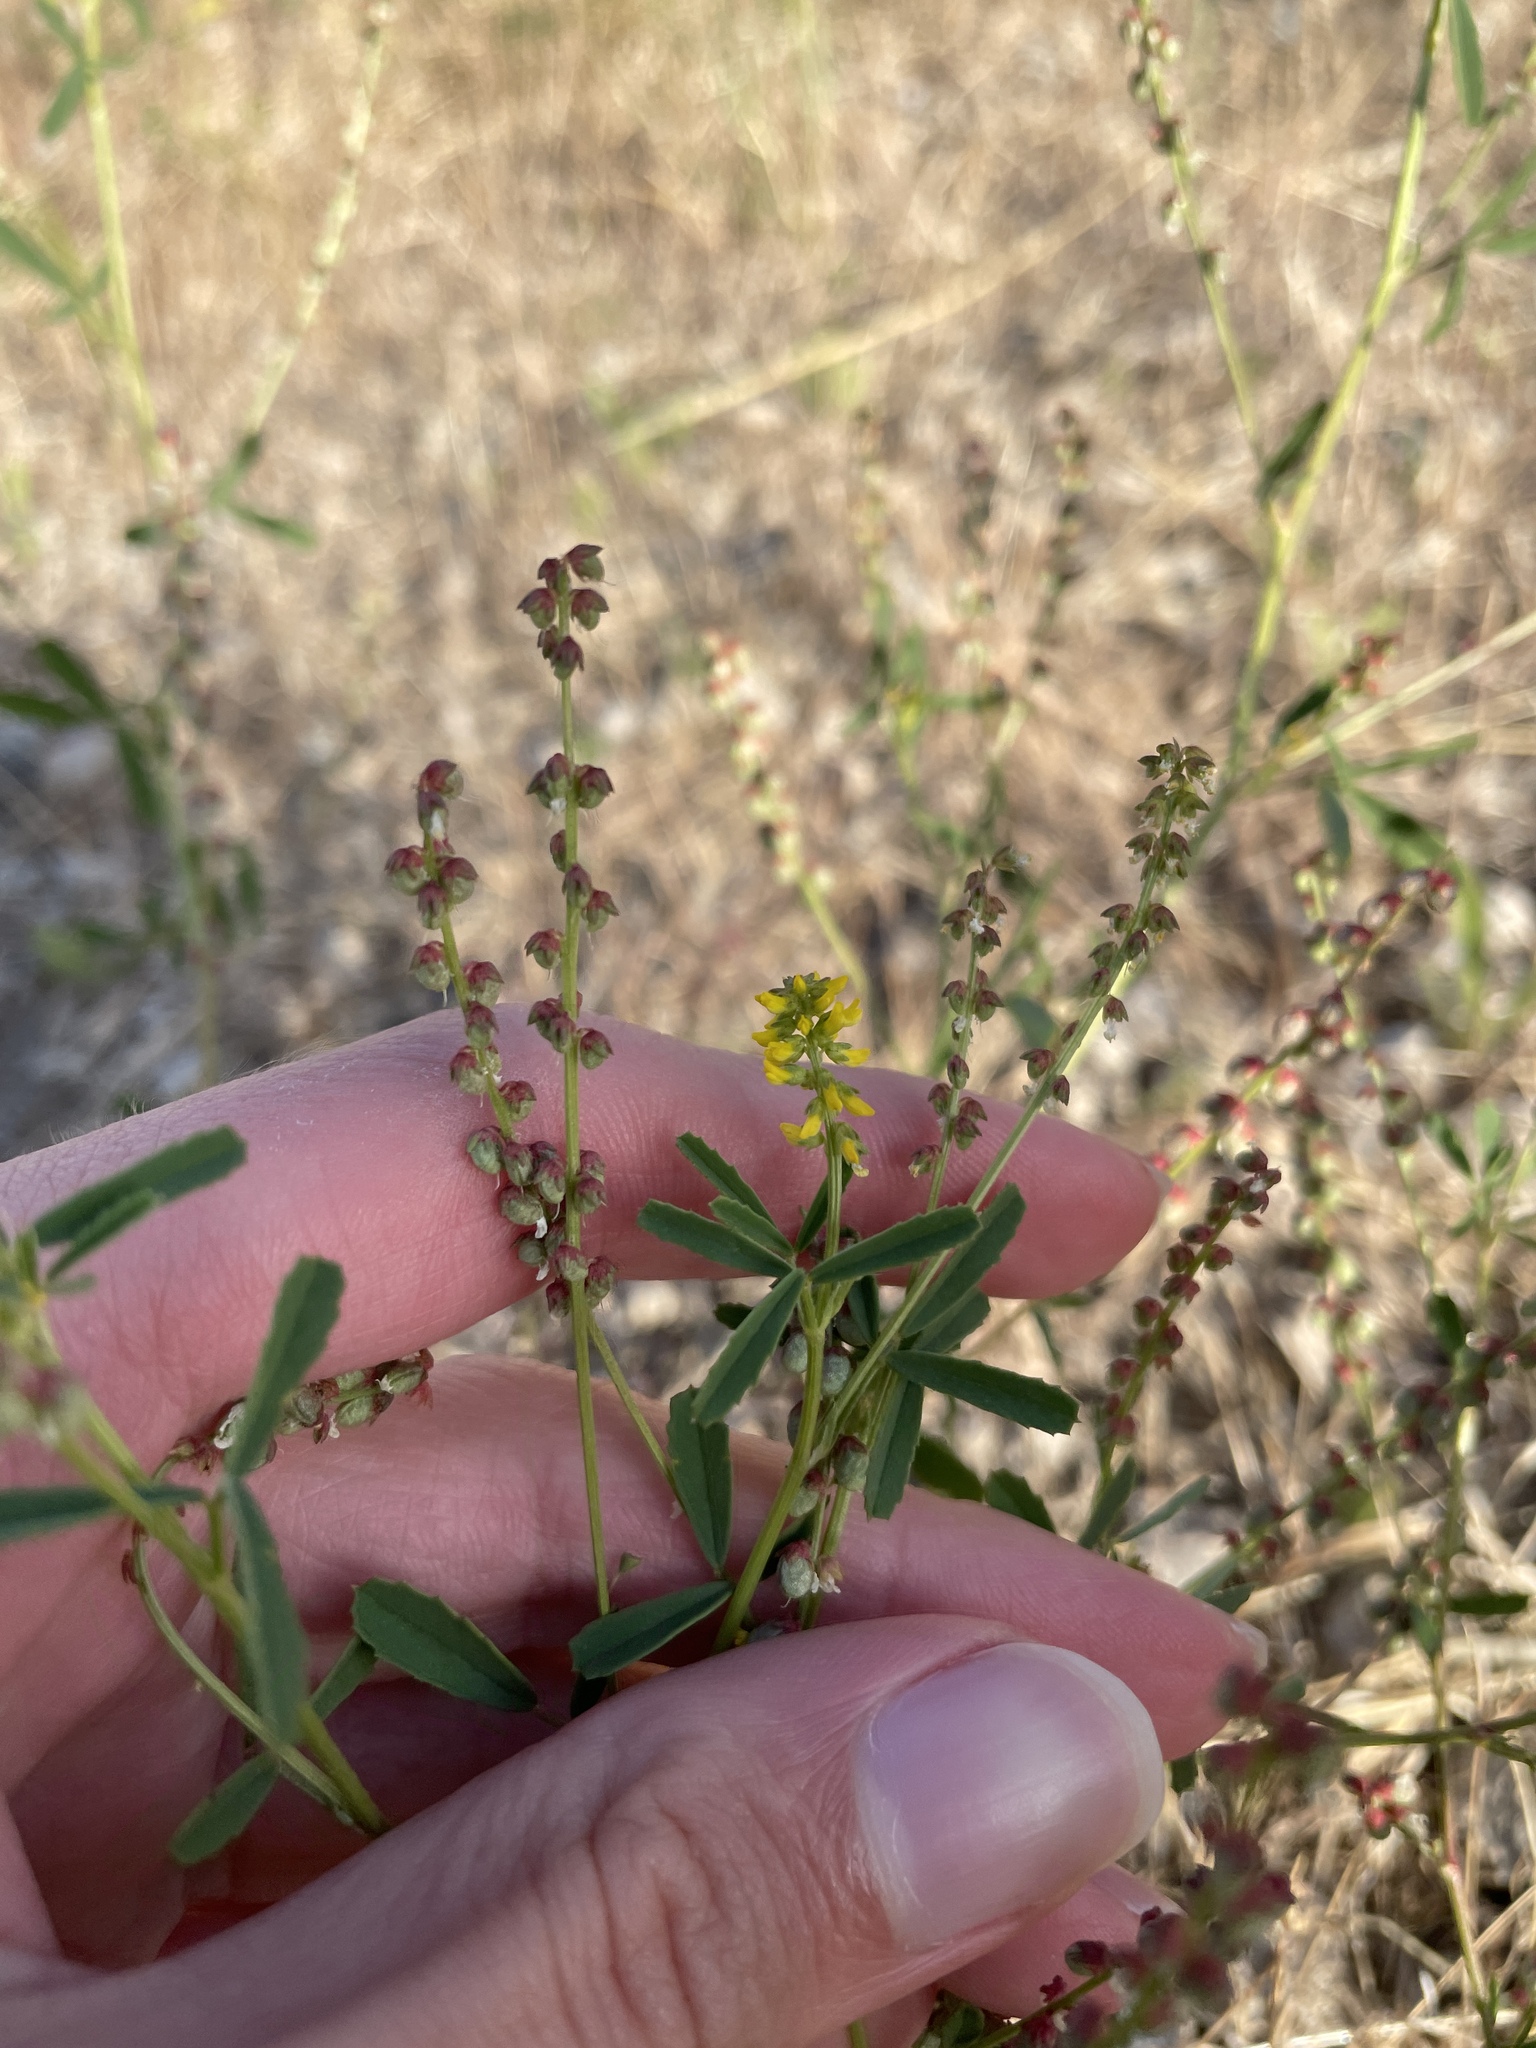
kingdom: Plantae
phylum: Tracheophyta
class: Magnoliopsida
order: Fabales
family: Fabaceae
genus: Melilotus
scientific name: Melilotus indicus
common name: Small melilot
